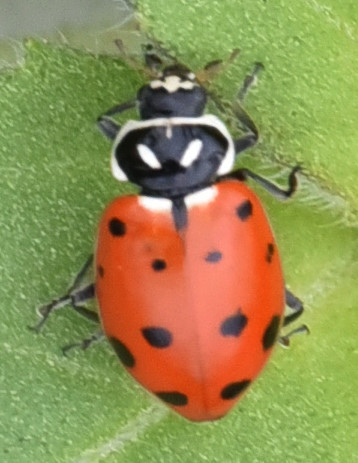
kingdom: Animalia
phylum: Arthropoda
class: Insecta
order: Coleoptera
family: Coccinellidae
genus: Hippodamia
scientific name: Hippodamia convergens
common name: Convergent lady beetle
